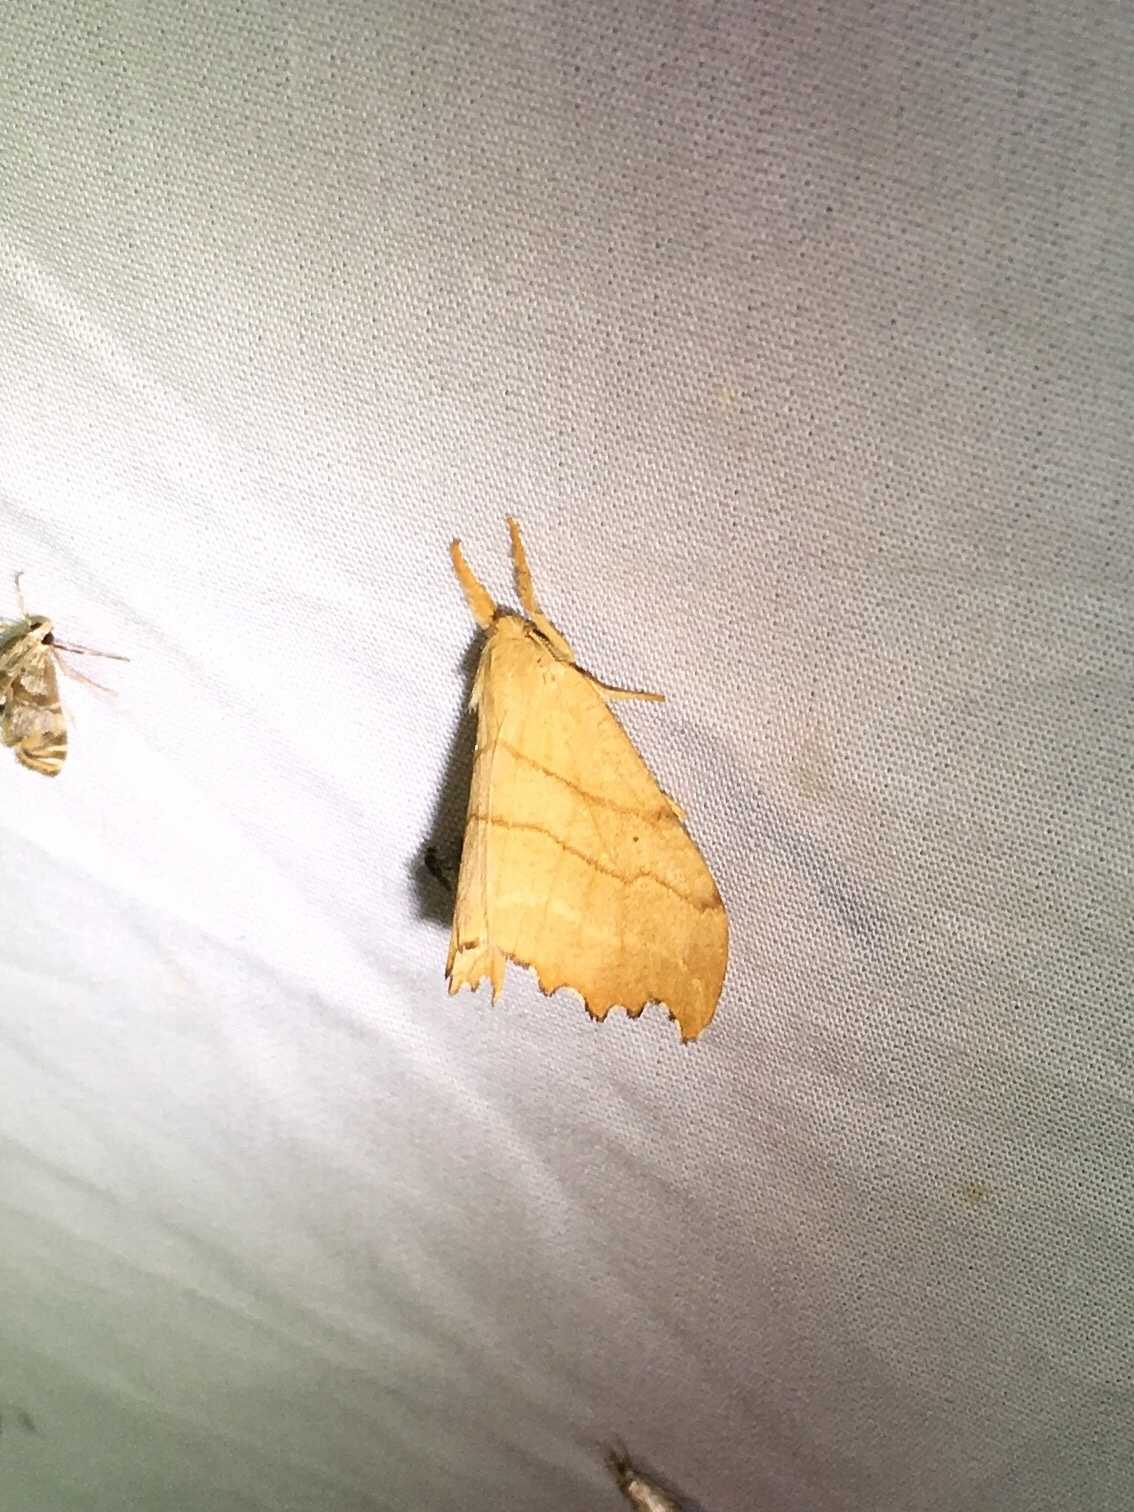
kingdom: Animalia
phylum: Arthropoda
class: Insecta
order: Lepidoptera
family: Drepanidae
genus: Falcaria
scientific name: Falcaria bilineata
